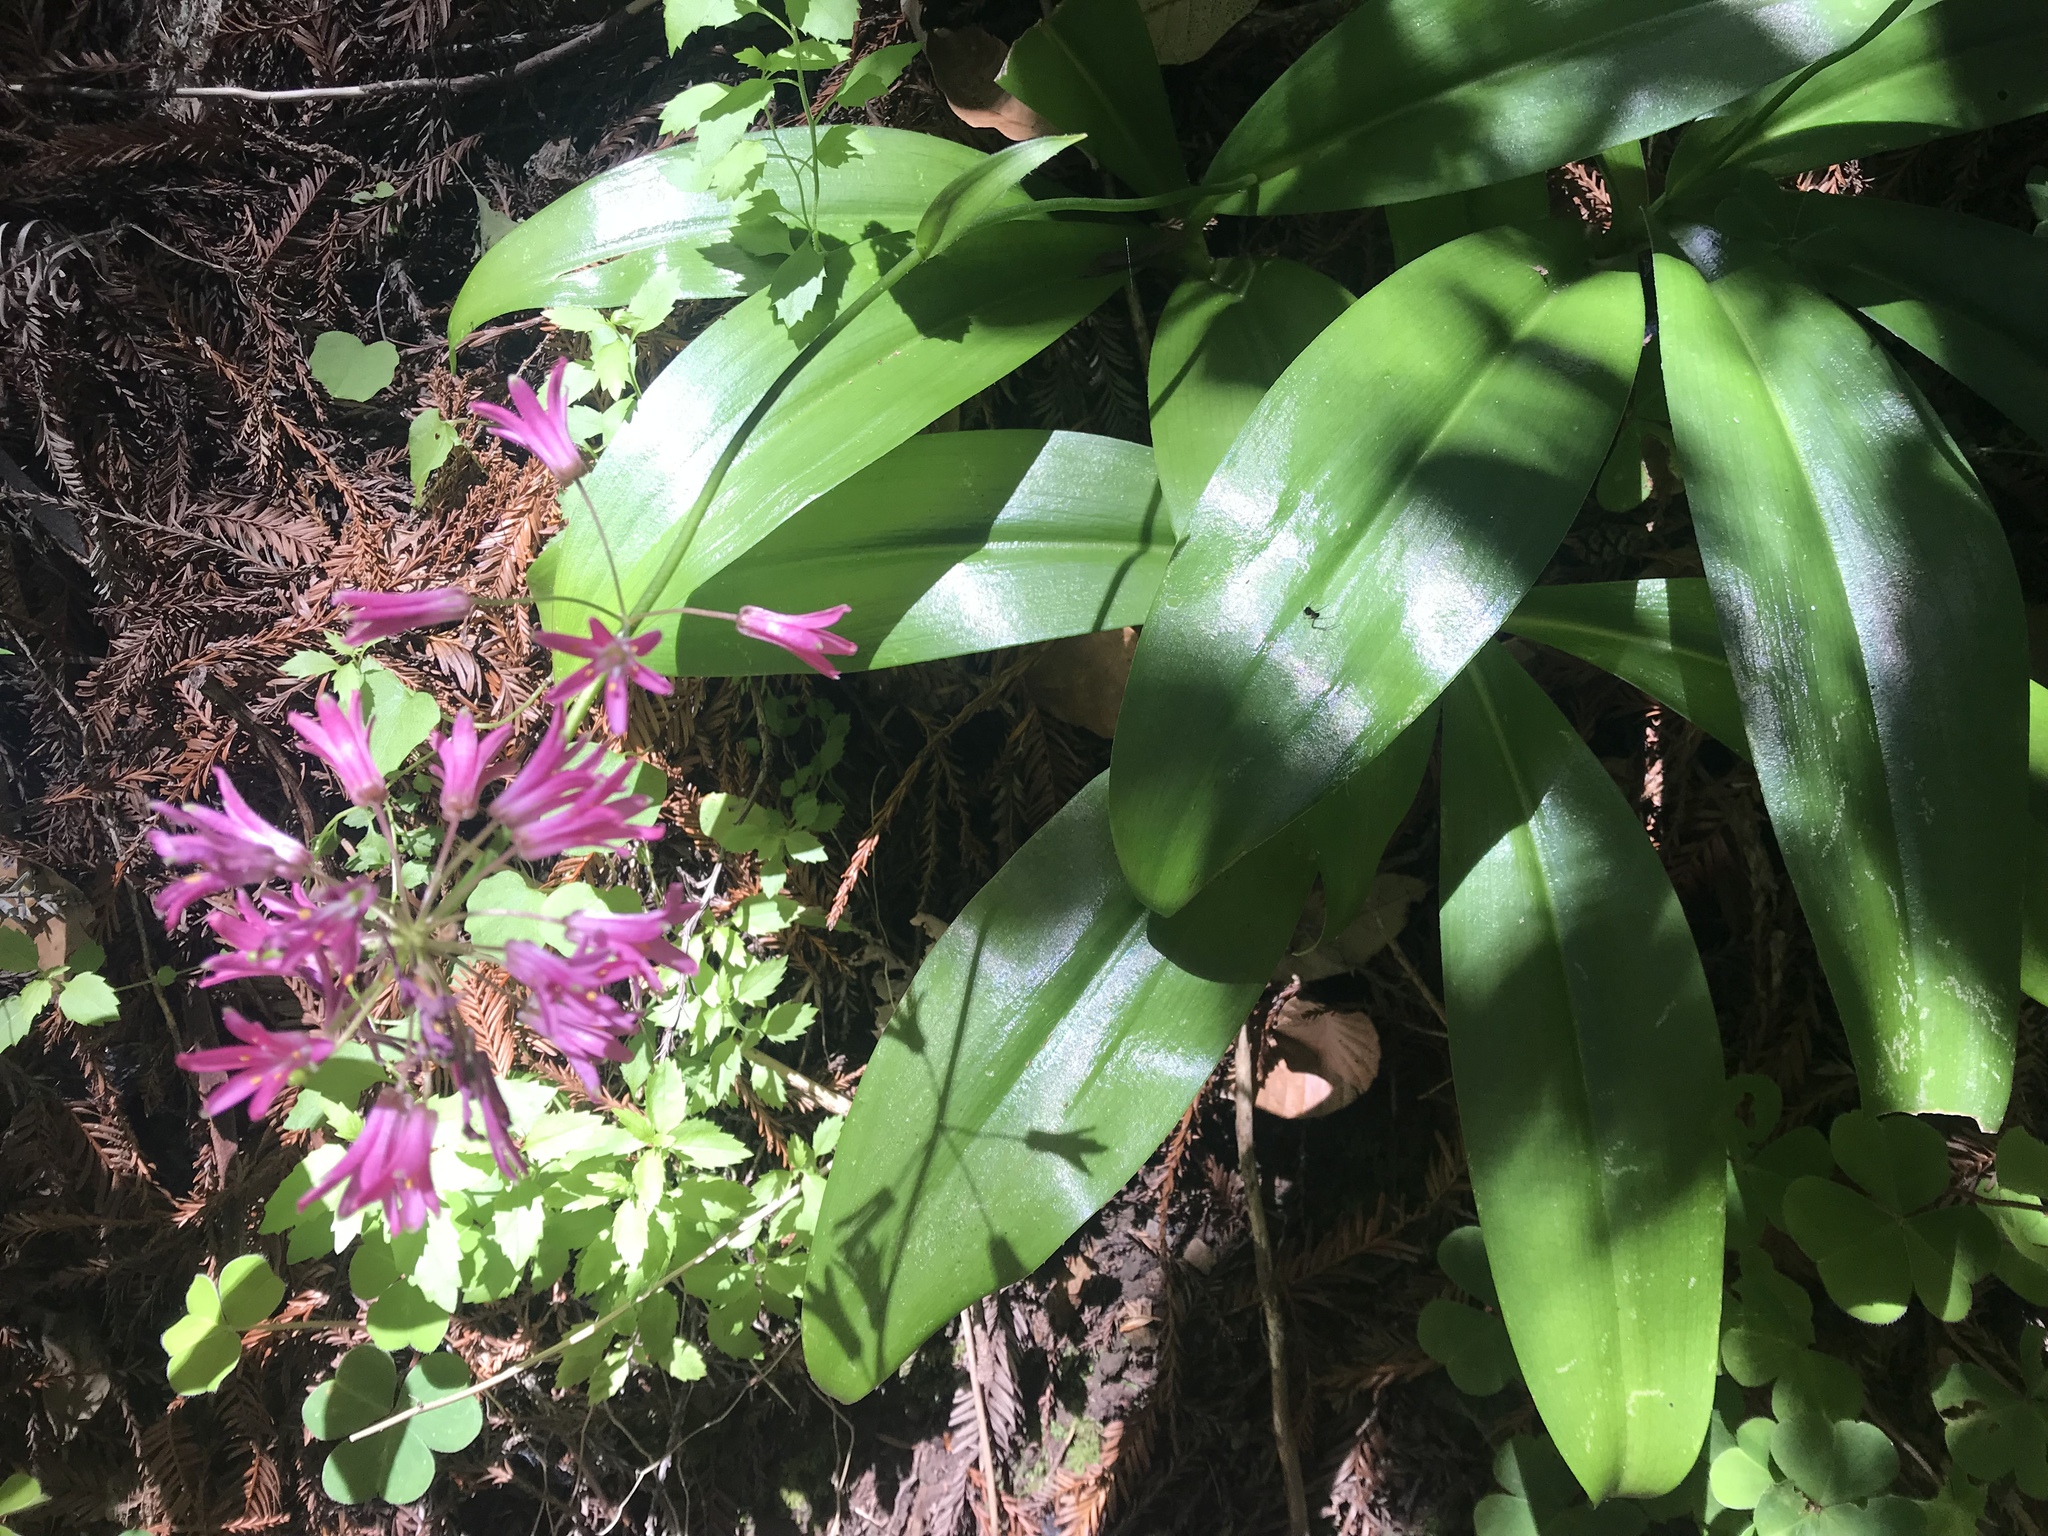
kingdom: Plantae
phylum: Tracheophyta
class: Liliopsida
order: Liliales
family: Liliaceae
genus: Clintonia
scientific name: Clintonia andrewsiana
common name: Red clintonia
